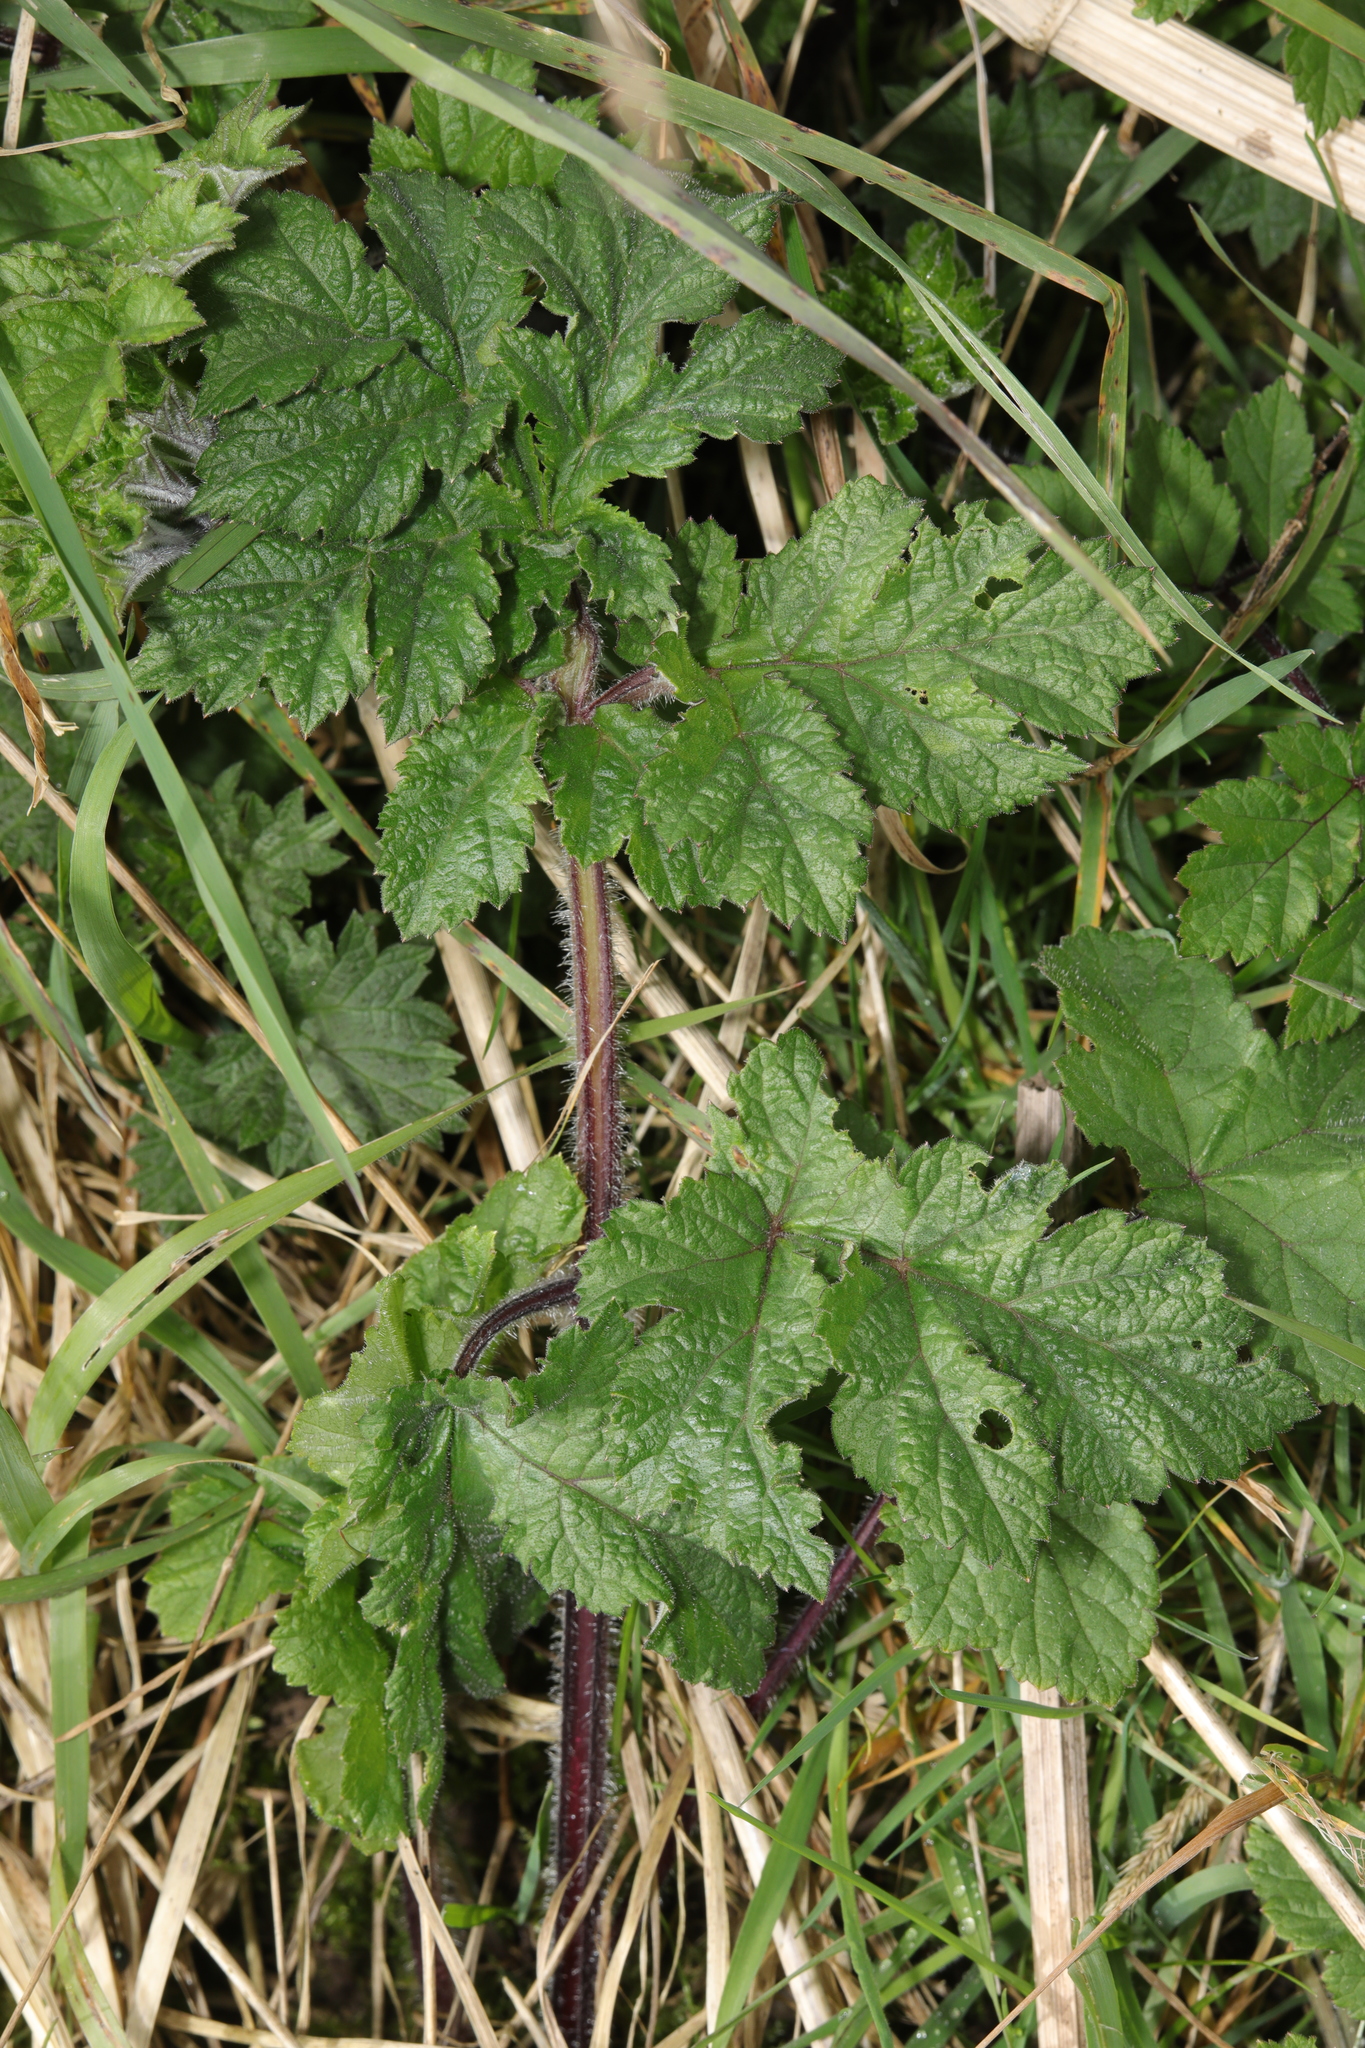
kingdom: Plantae
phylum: Tracheophyta
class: Magnoliopsida
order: Apiales
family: Apiaceae
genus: Heracleum
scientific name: Heracleum sphondylium
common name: Hogweed
